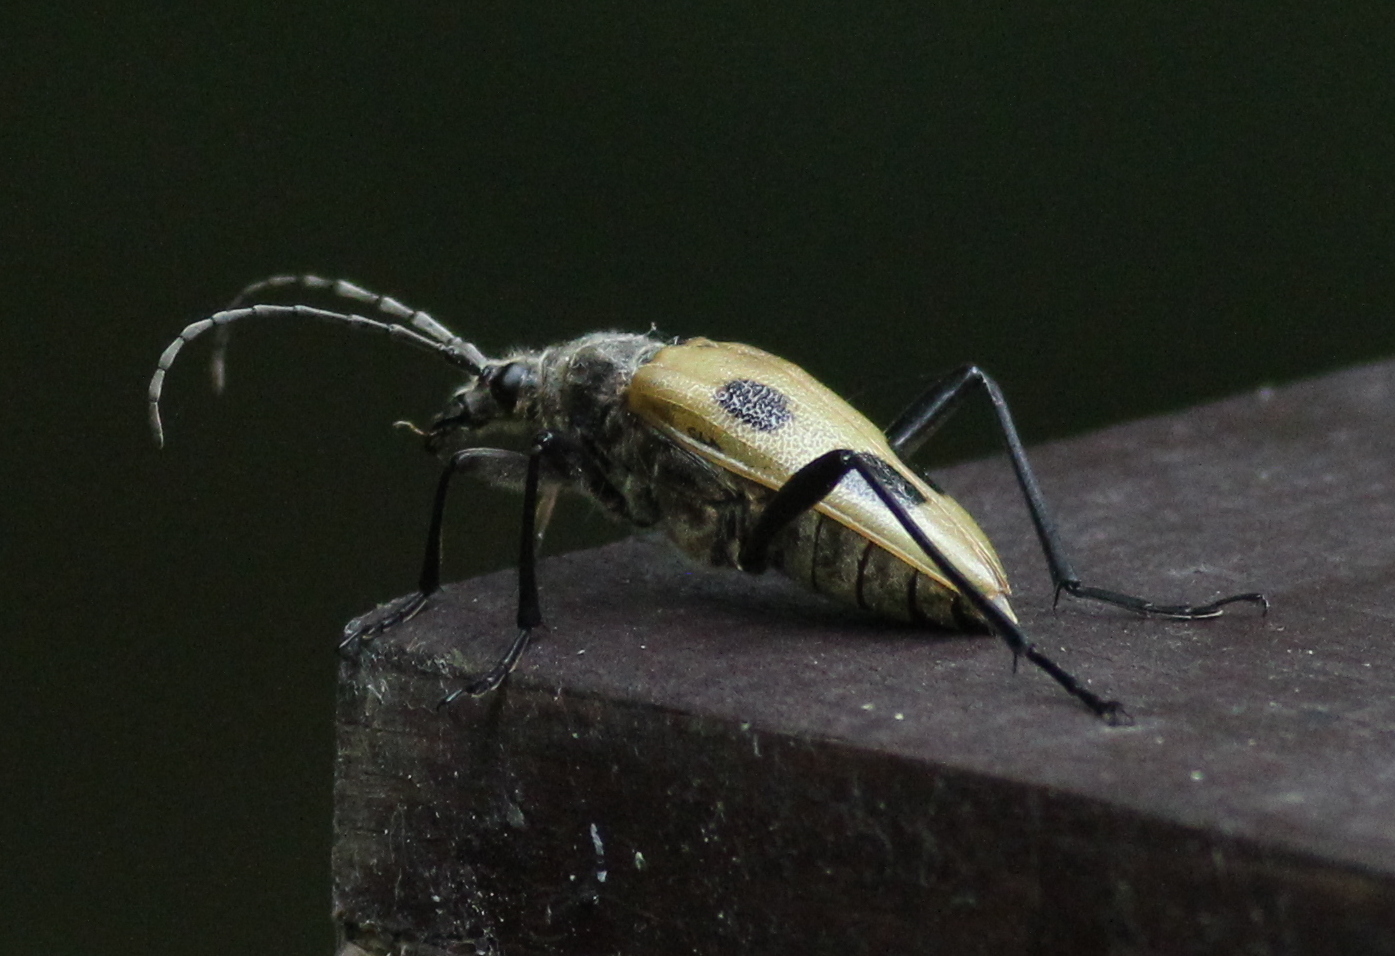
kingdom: Animalia
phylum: Arthropoda
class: Insecta
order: Coleoptera
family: Cerambycidae
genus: Pachyta
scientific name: Pachyta quadrimaculata
